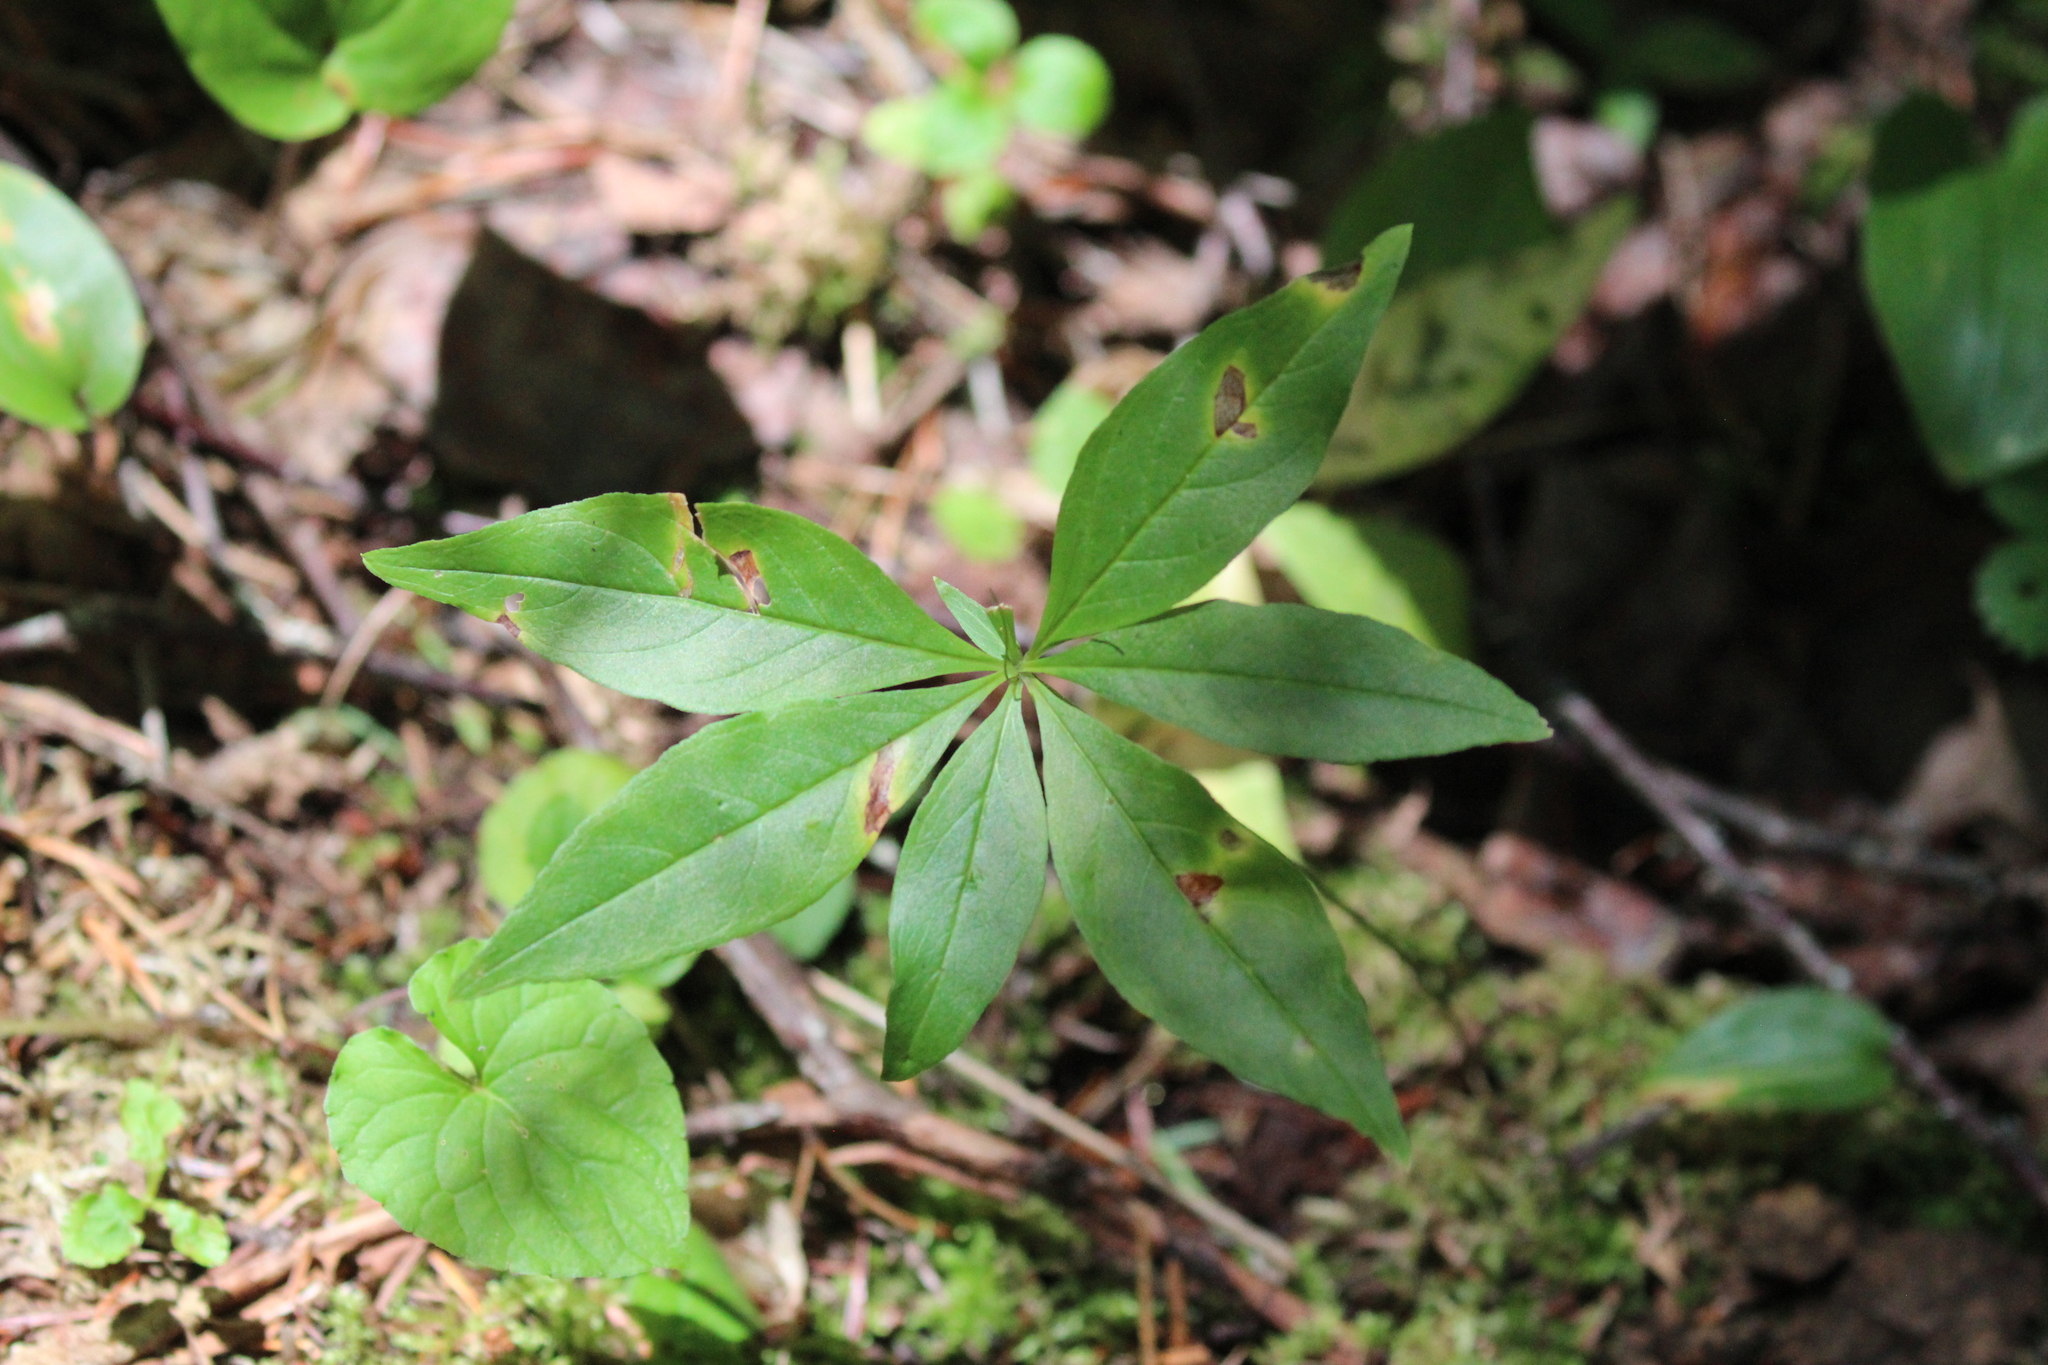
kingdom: Plantae
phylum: Tracheophyta
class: Magnoliopsida
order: Ericales
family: Primulaceae
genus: Lysimachia
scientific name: Lysimachia borealis
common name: American starflower
